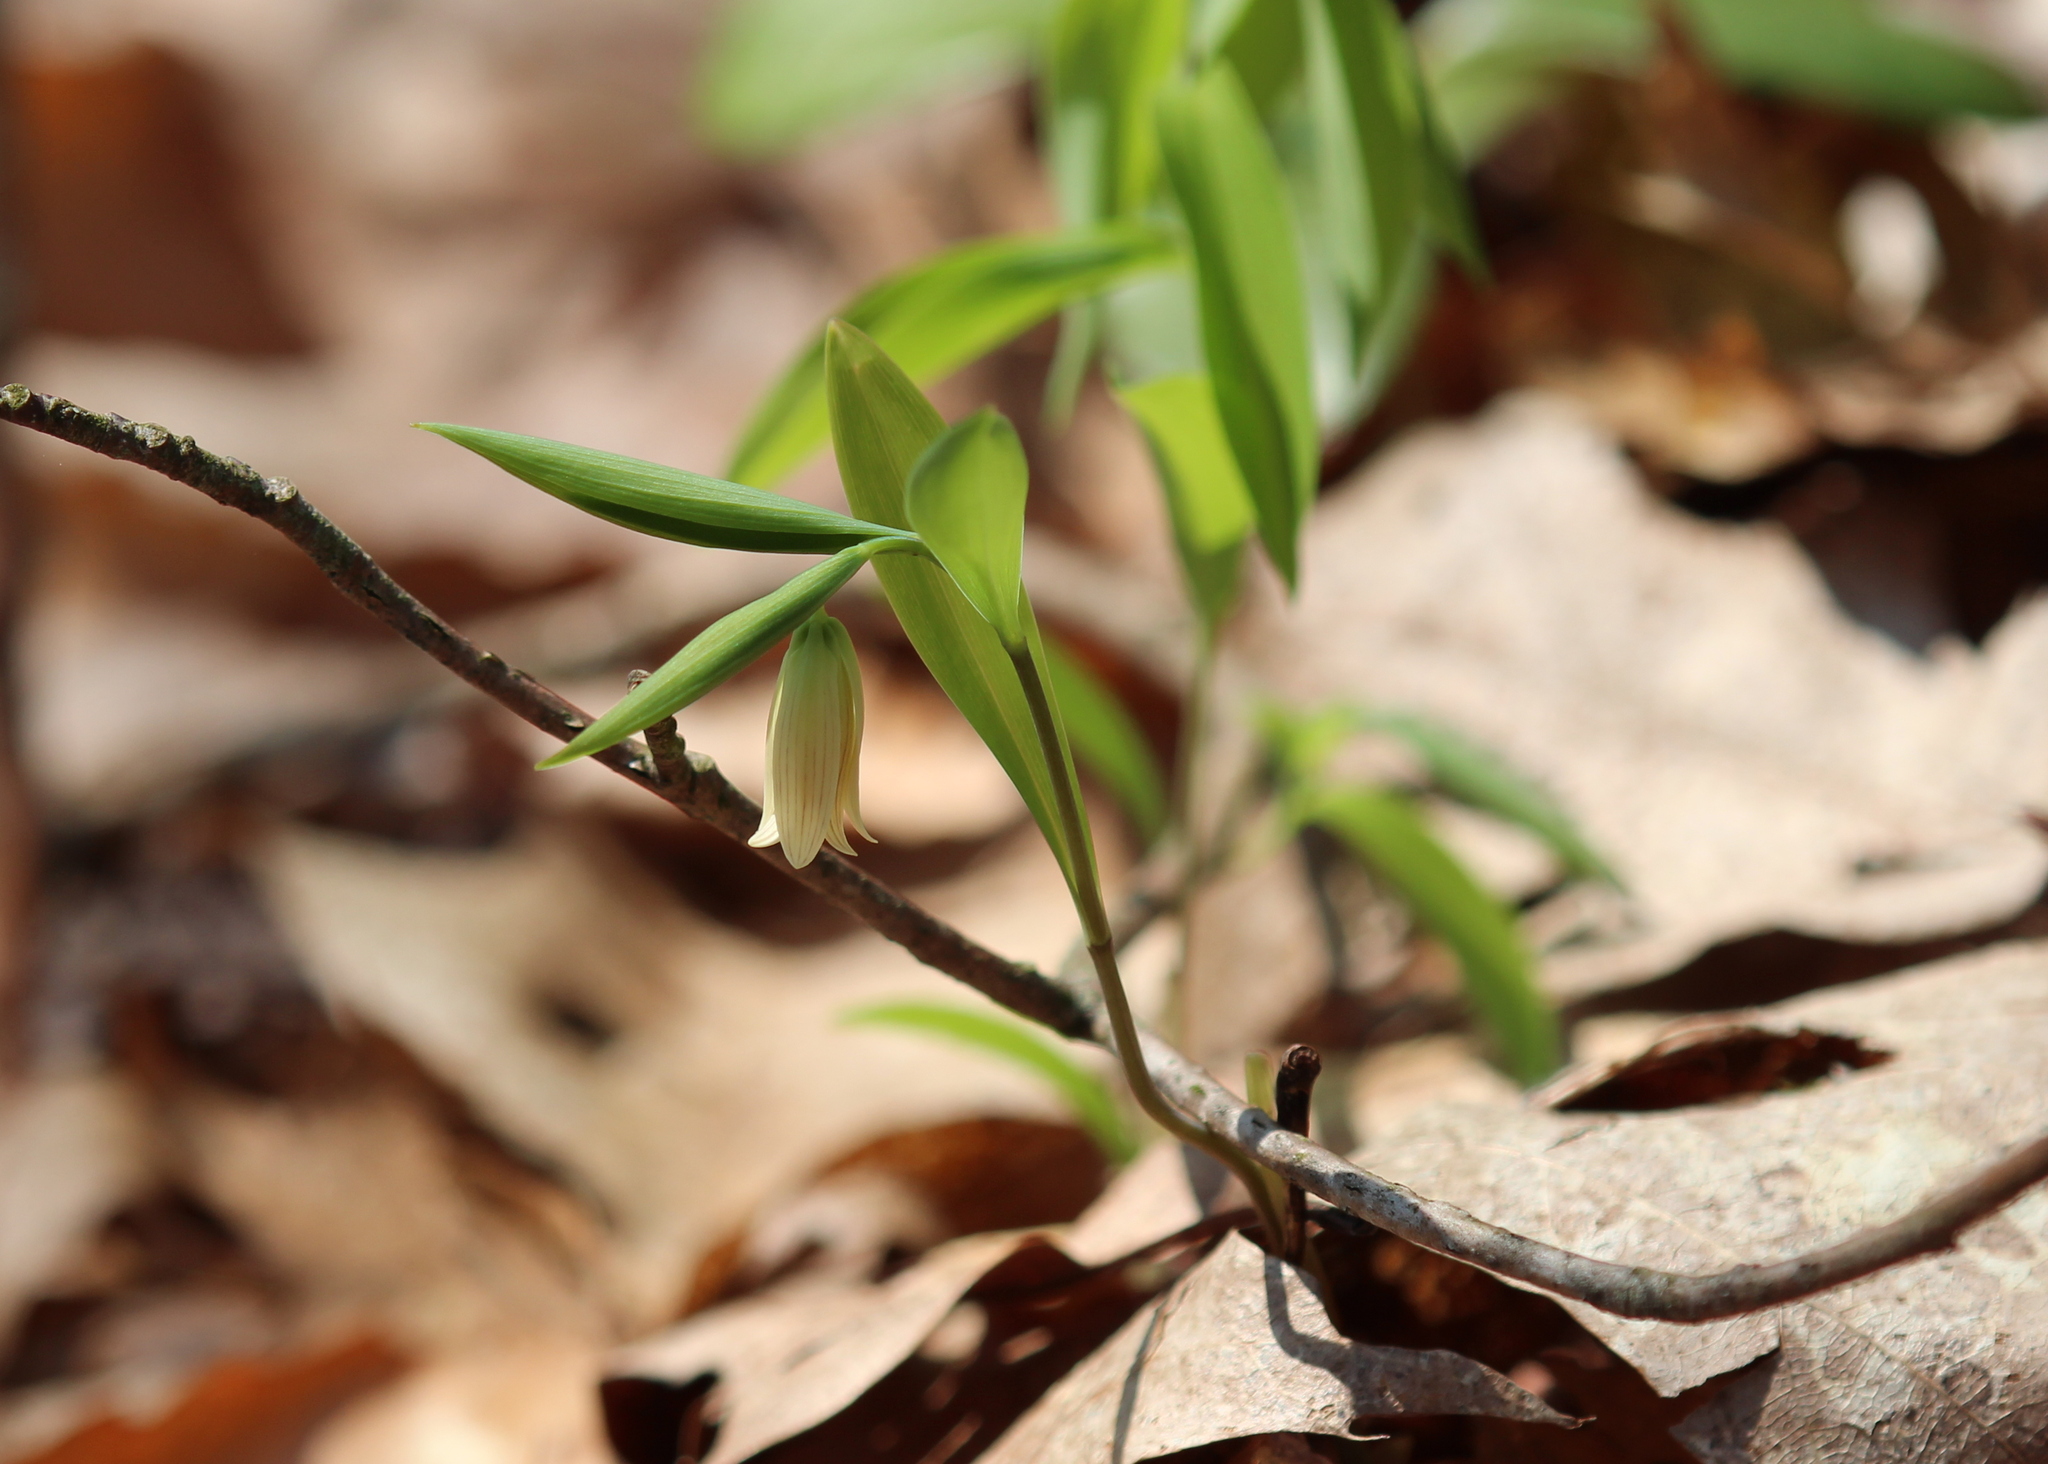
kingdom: Plantae
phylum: Tracheophyta
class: Liliopsida
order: Liliales
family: Colchicaceae
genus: Uvularia
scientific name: Uvularia sessilifolia
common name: Straw-lily
